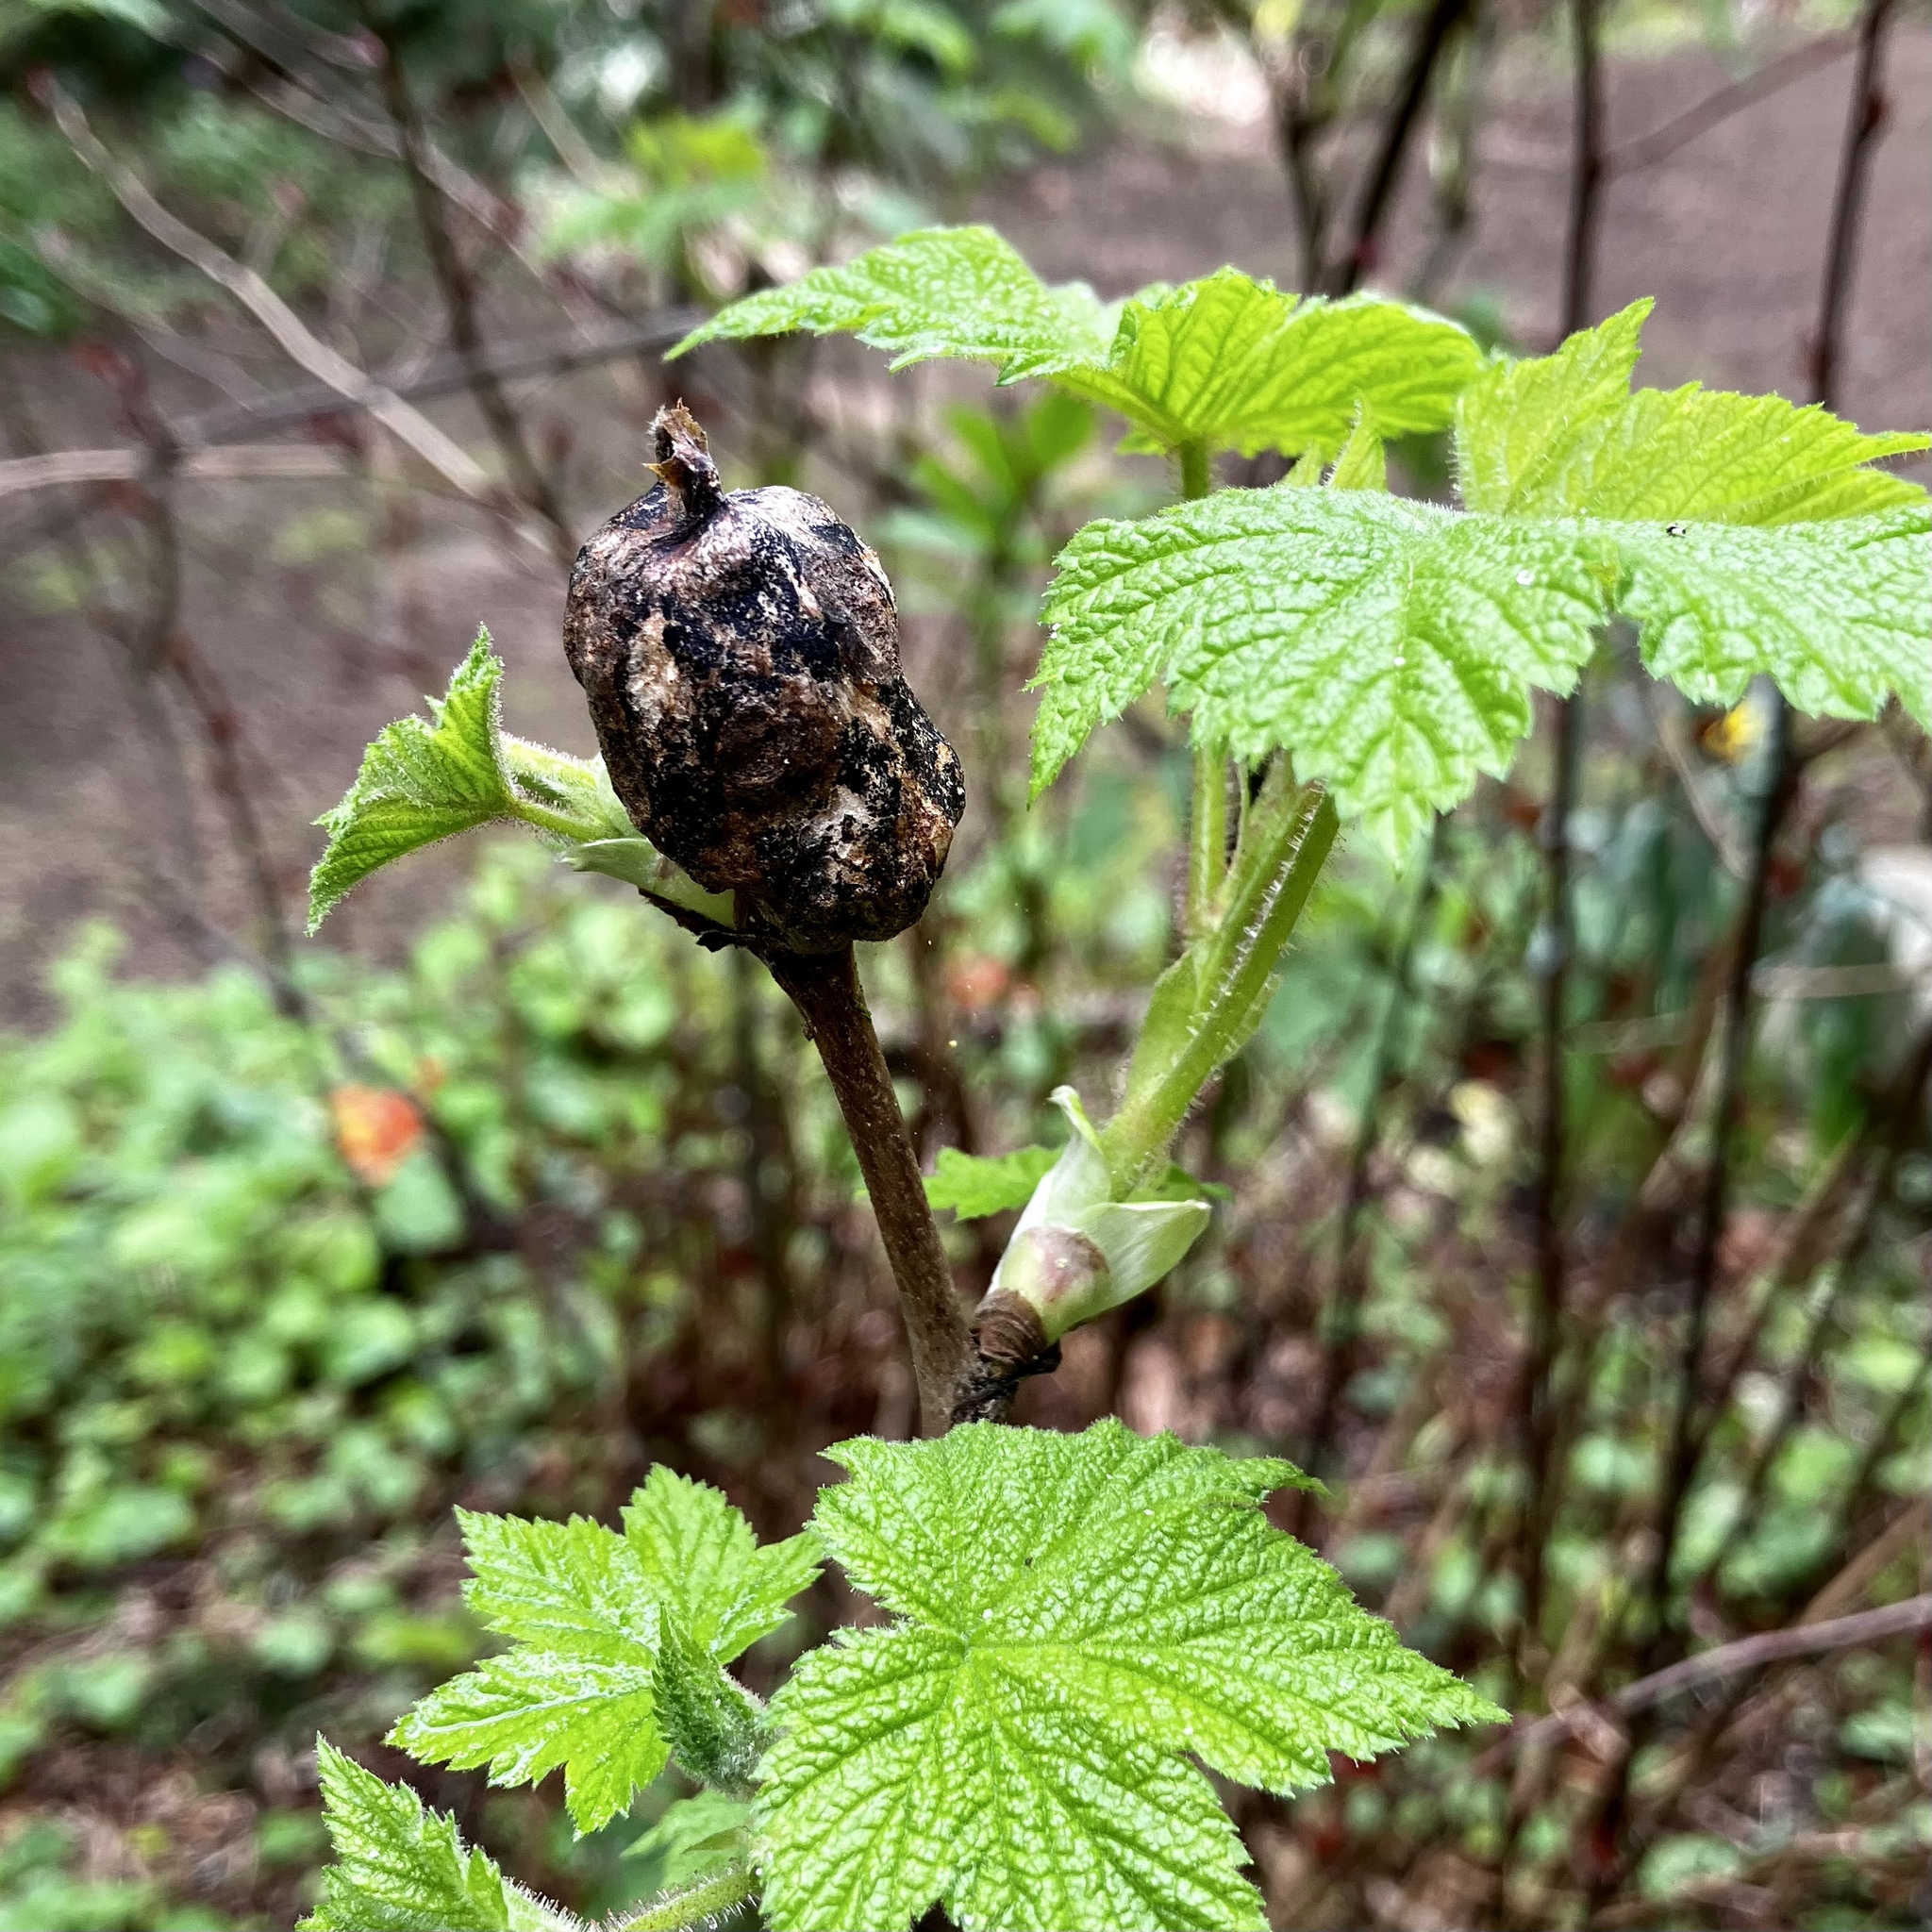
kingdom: Animalia
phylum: Arthropoda
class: Insecta
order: Hymenoptera
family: Cynipidae
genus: Diastrophus
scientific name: Diastrophus
